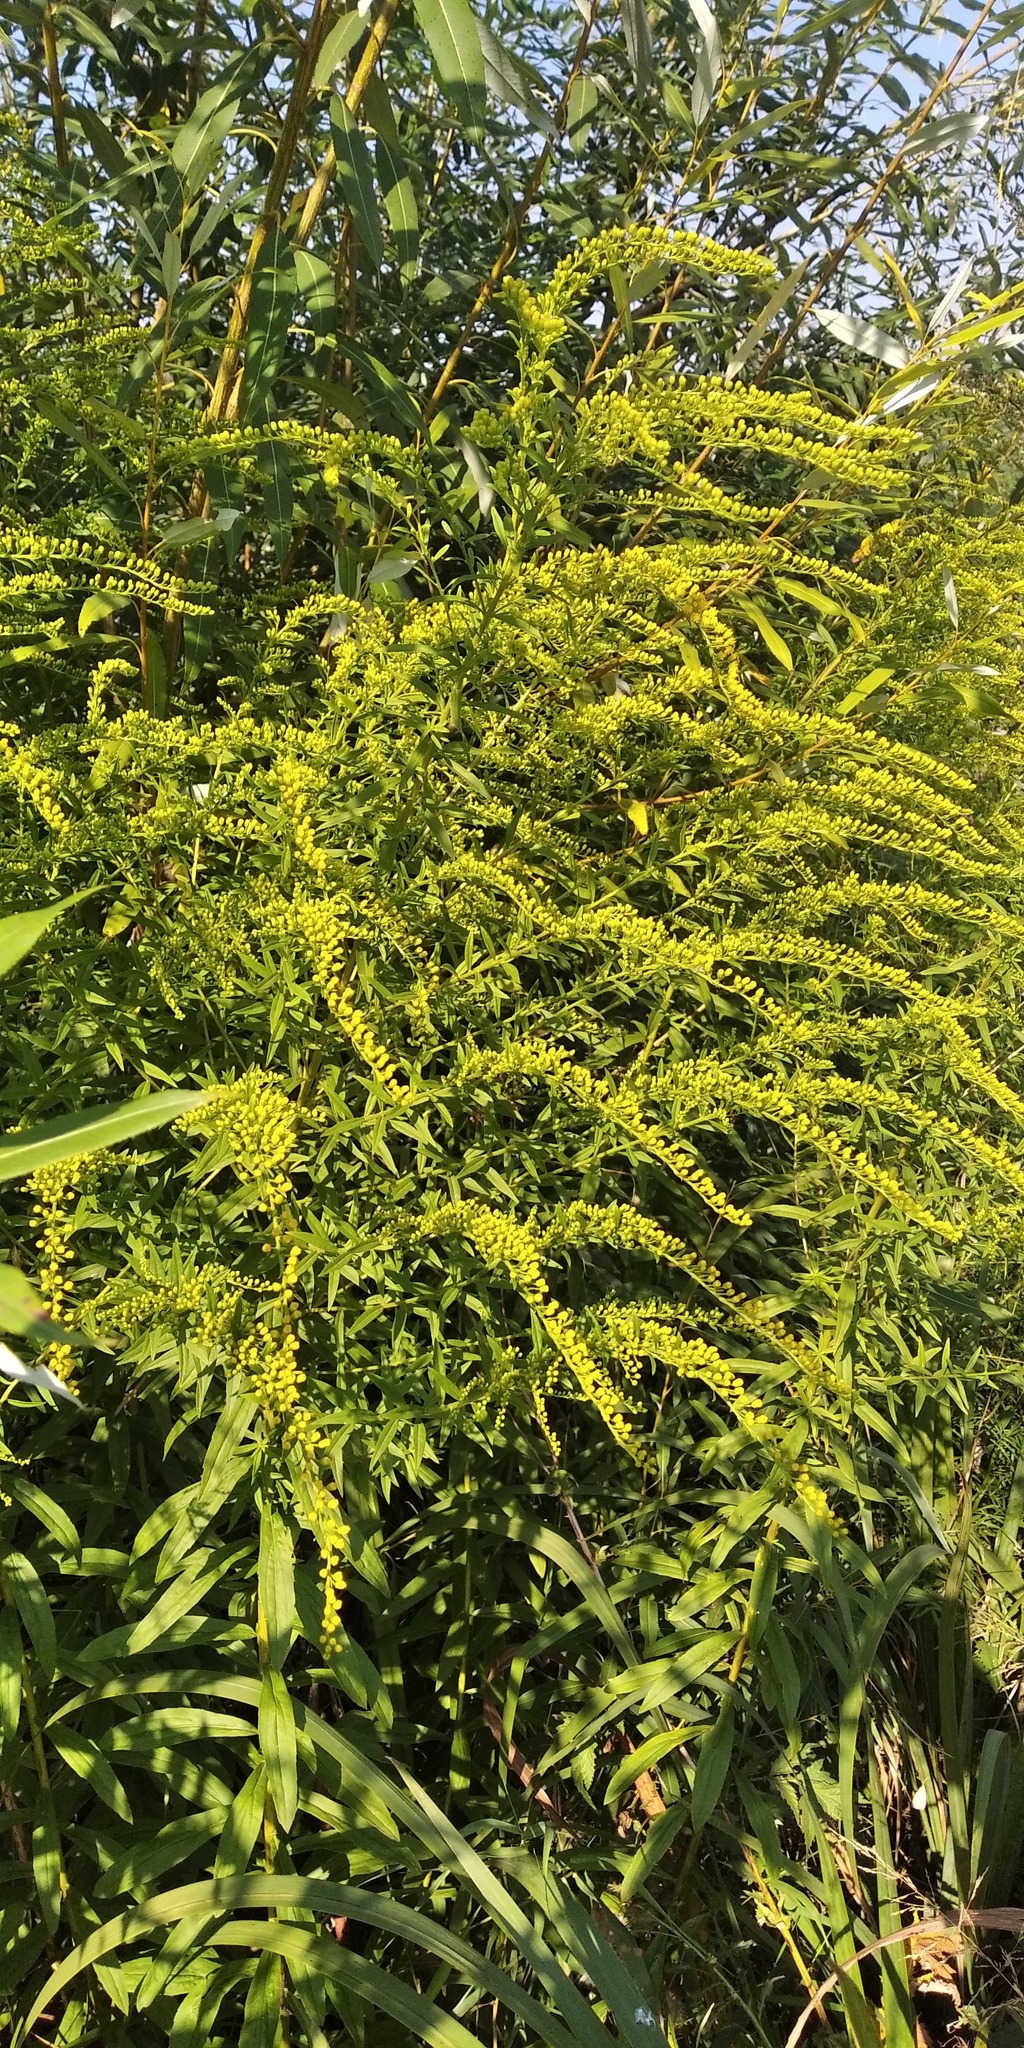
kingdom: Plantae
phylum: Tracheophyta
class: Magnoliopsida
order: Asterales
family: Asteraceae
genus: Solidago
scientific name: Solidago canadensis
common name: Canada goldenrod
